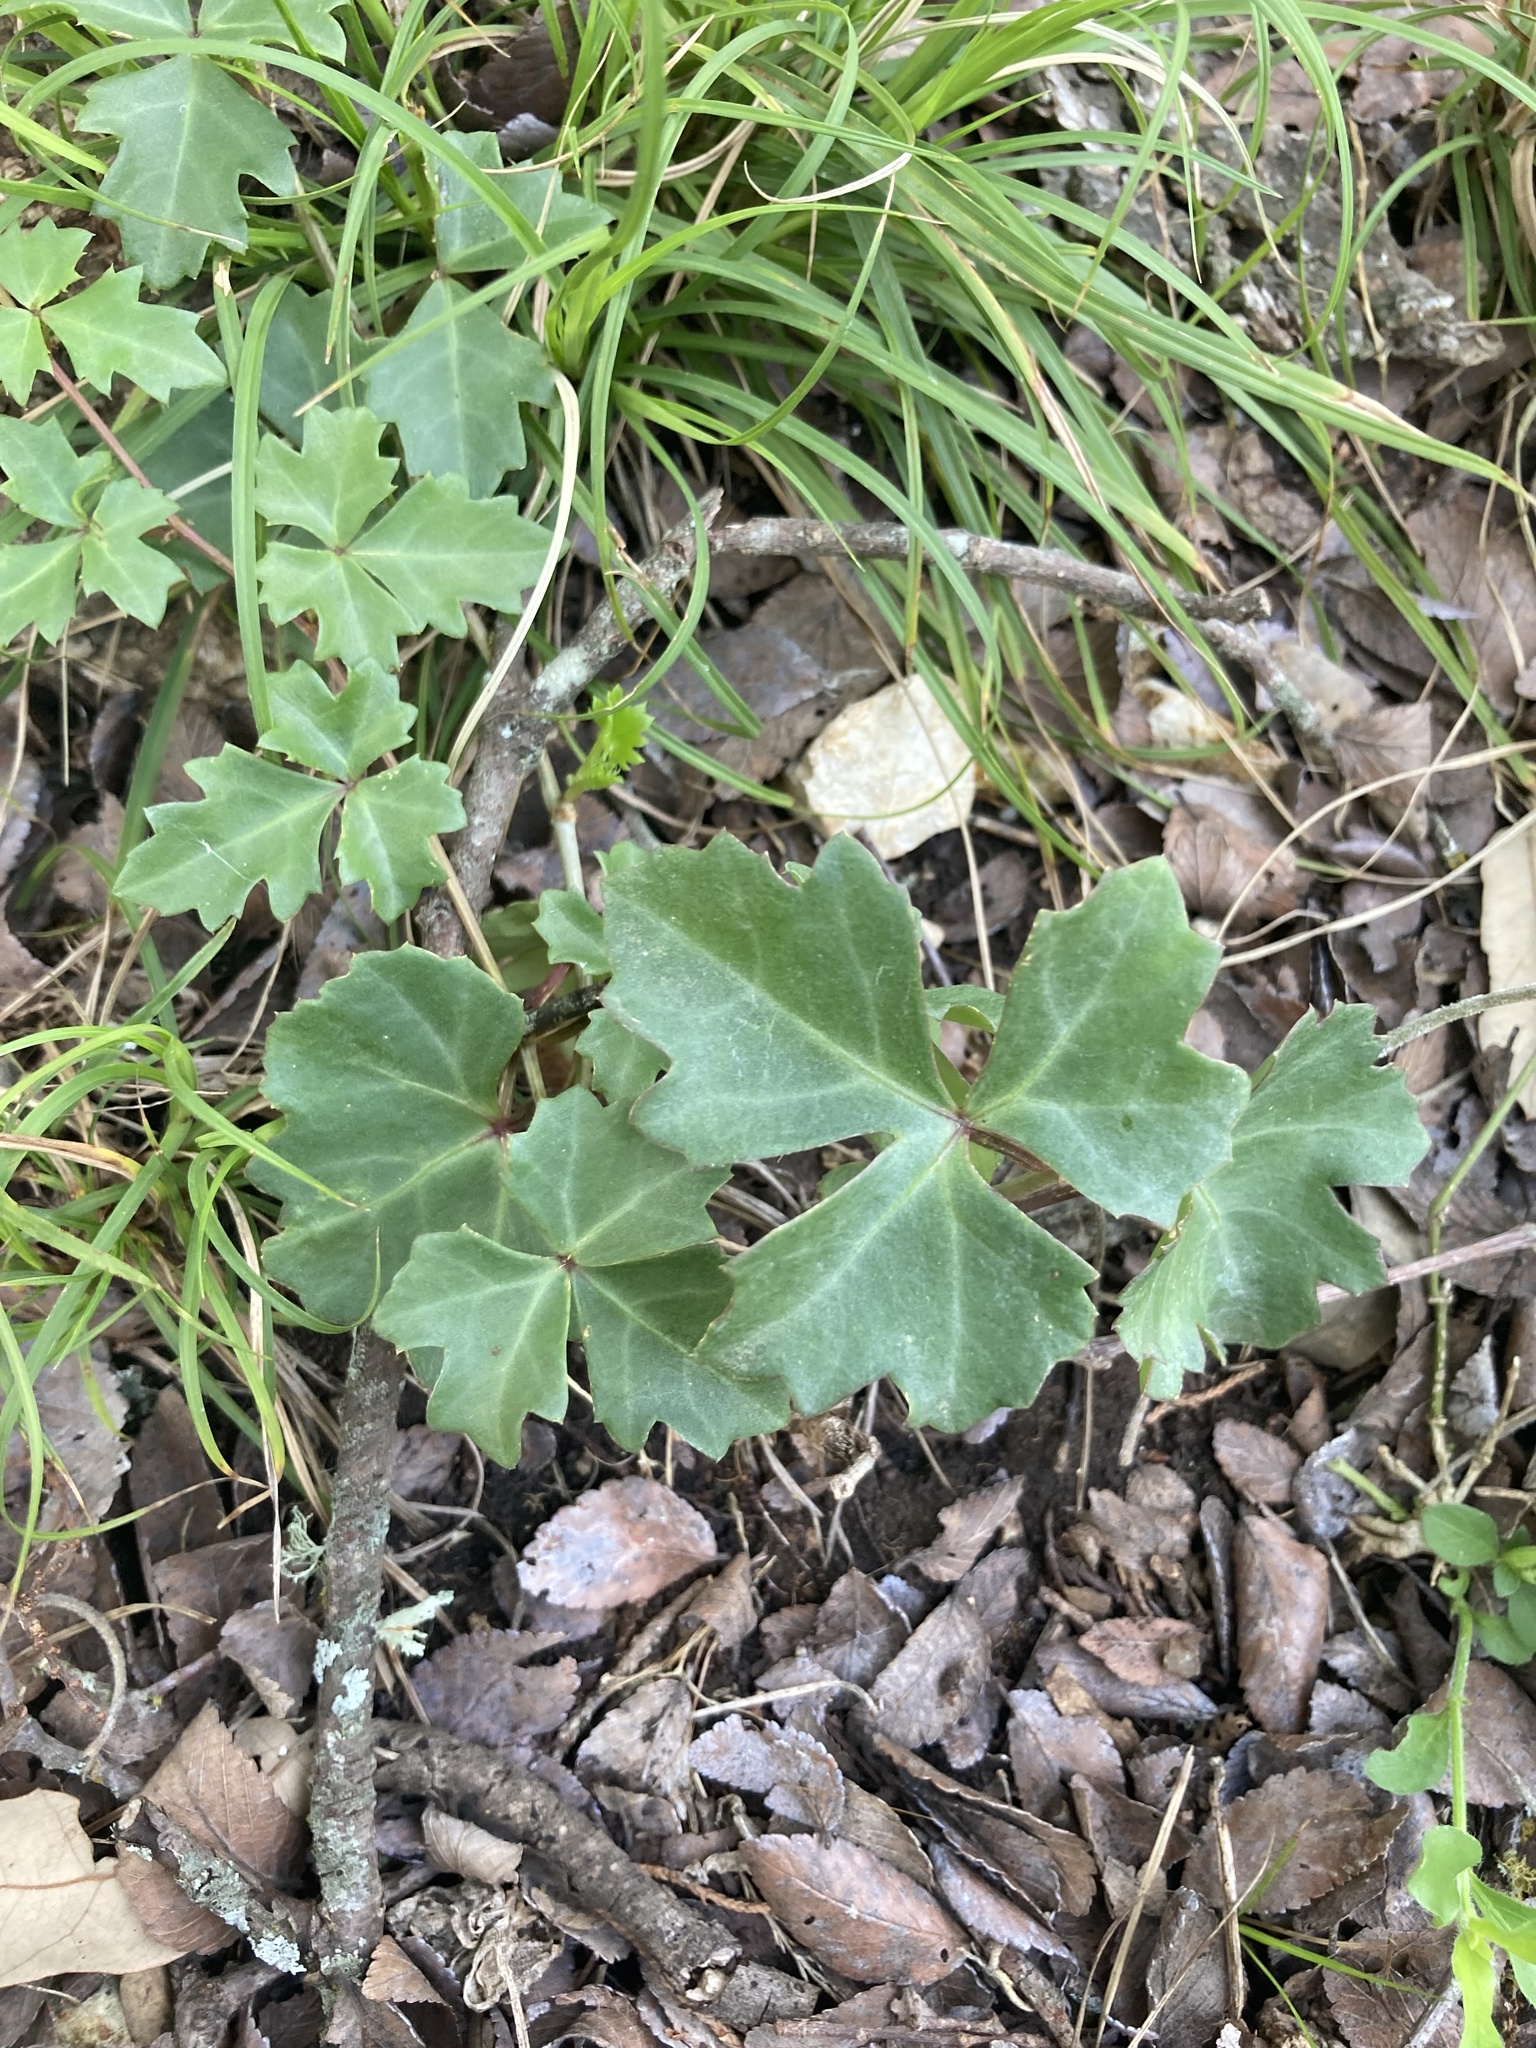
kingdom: Plantae
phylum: Tracheophyta
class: Magnoliopsida
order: Vitales
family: Vitaceae
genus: Cissus
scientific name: Cissus trifoliata
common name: Vine-sorrel
